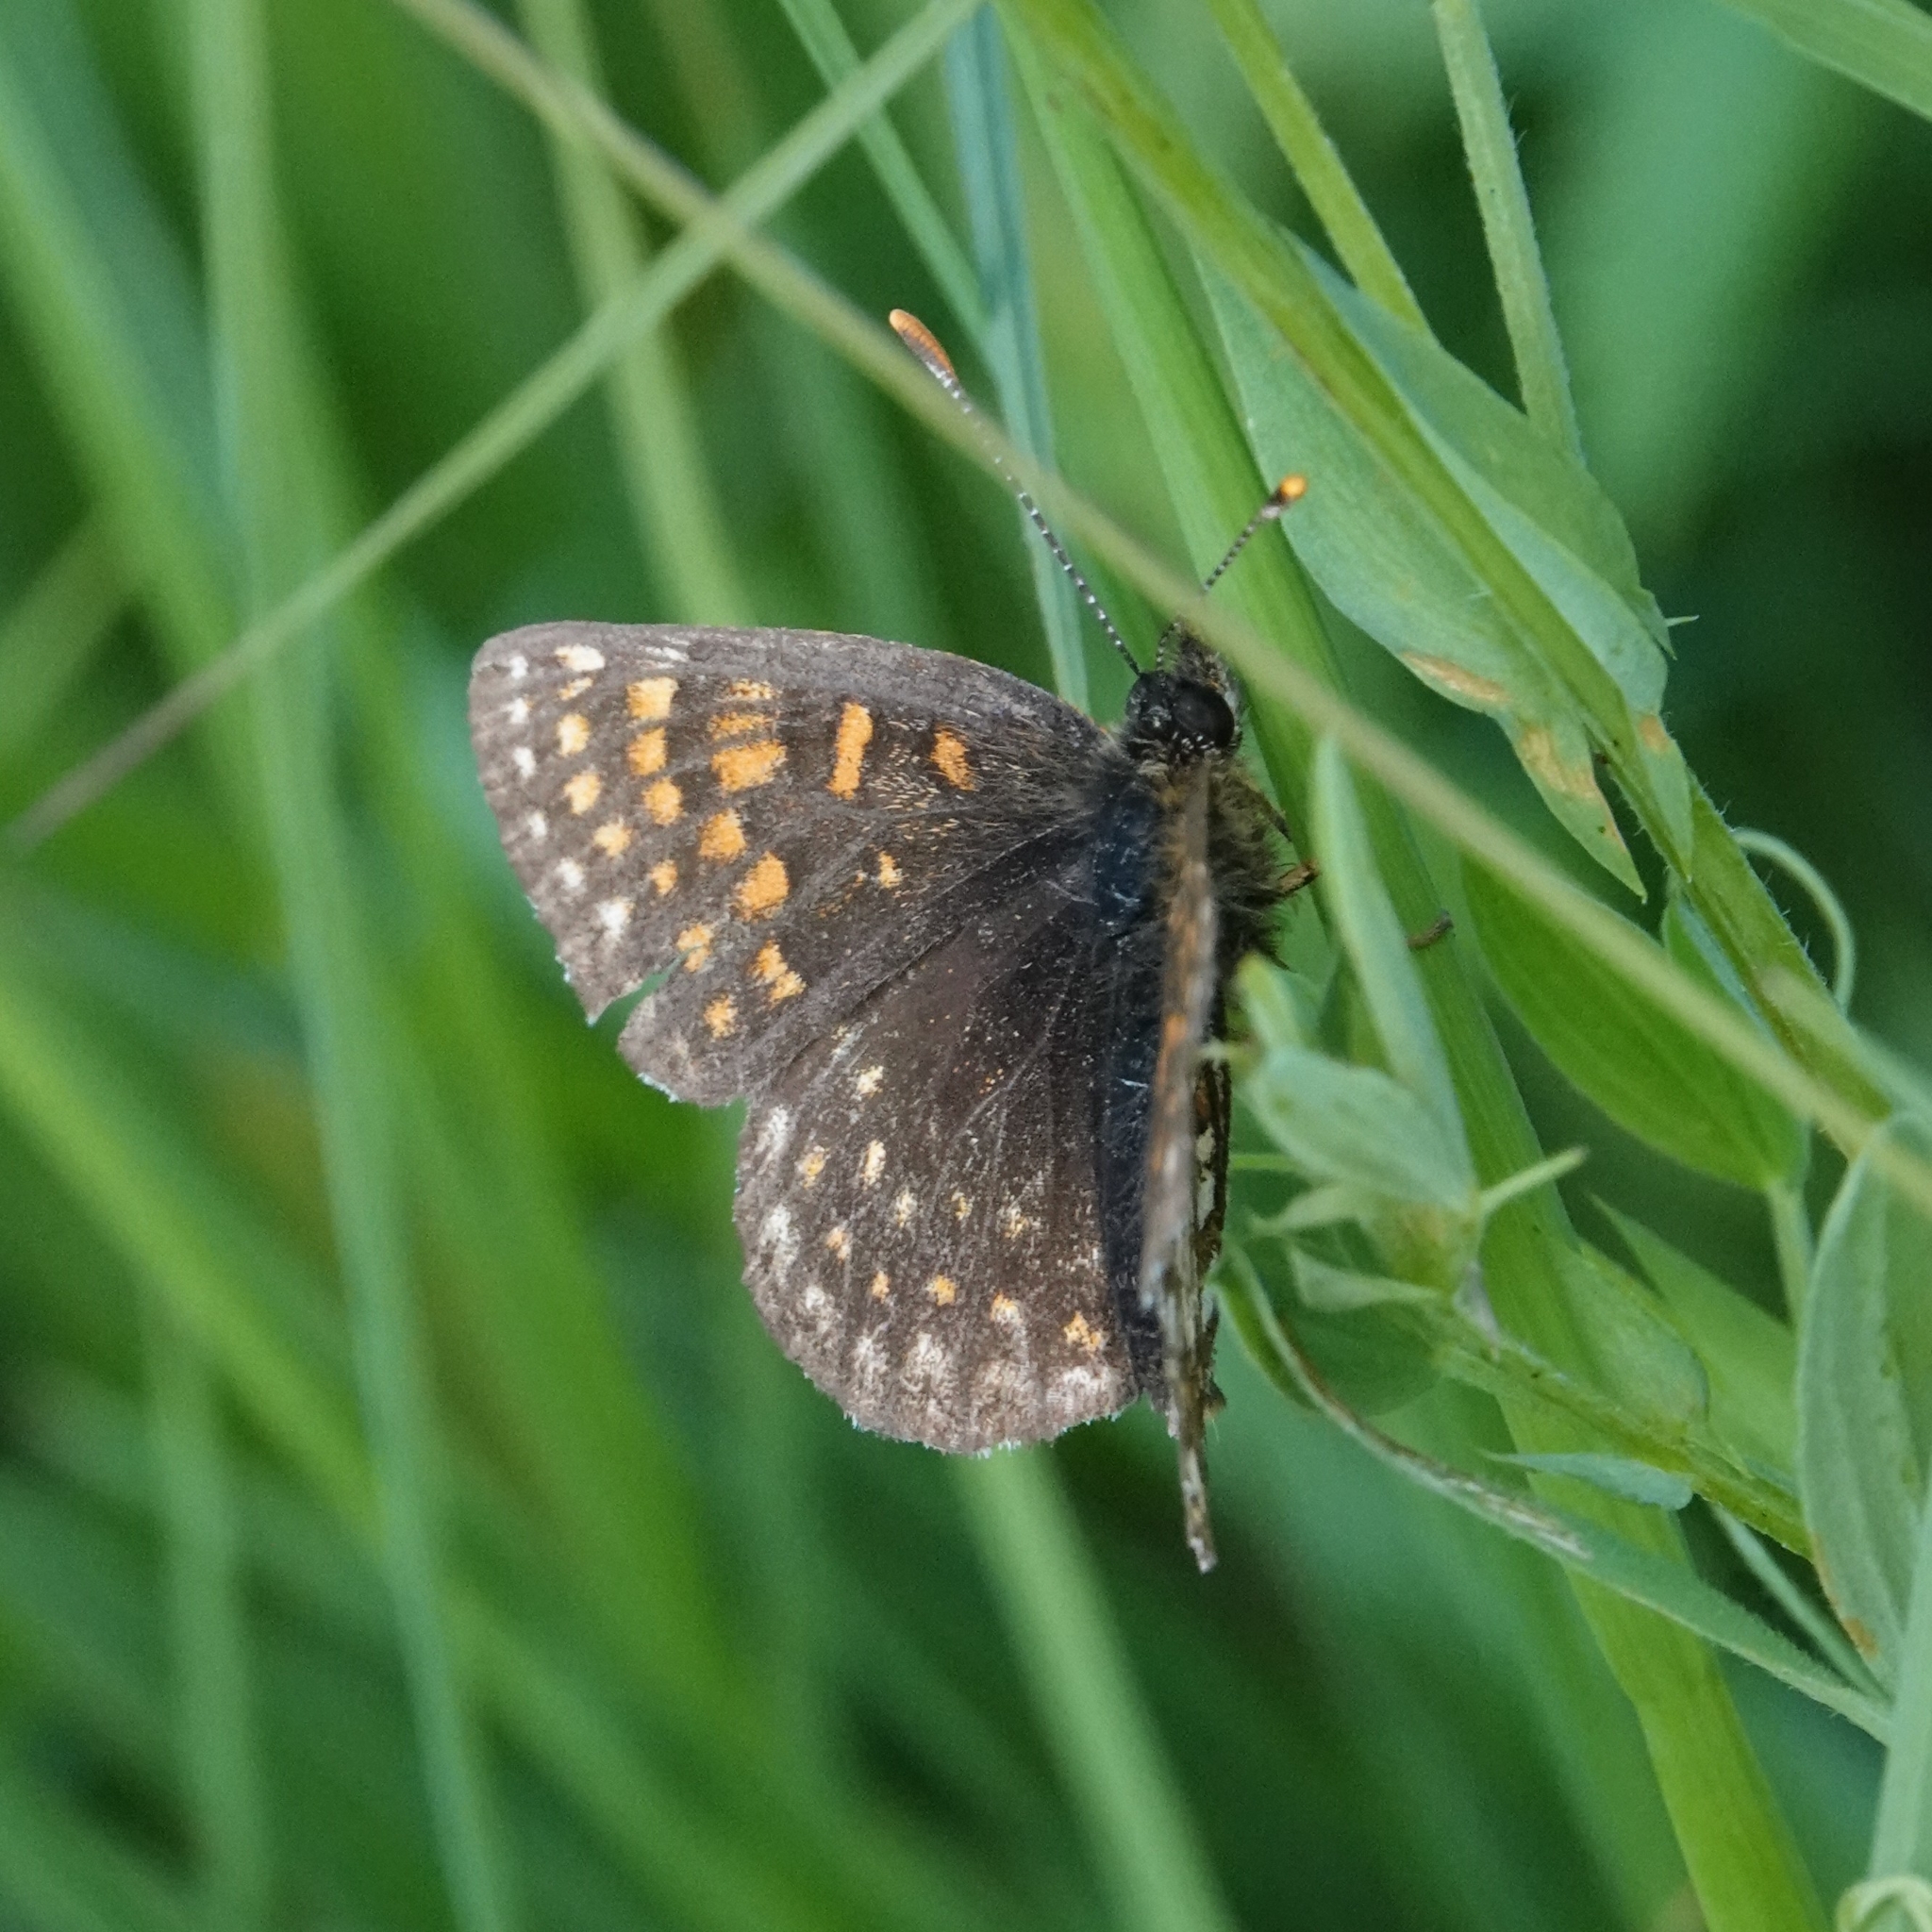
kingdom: Animalia
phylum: Arthropoda
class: Insecta
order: Lepidoptera
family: Nymphalidae
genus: Melitaea
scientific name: Melitaea diamina
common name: False heath fritillary
